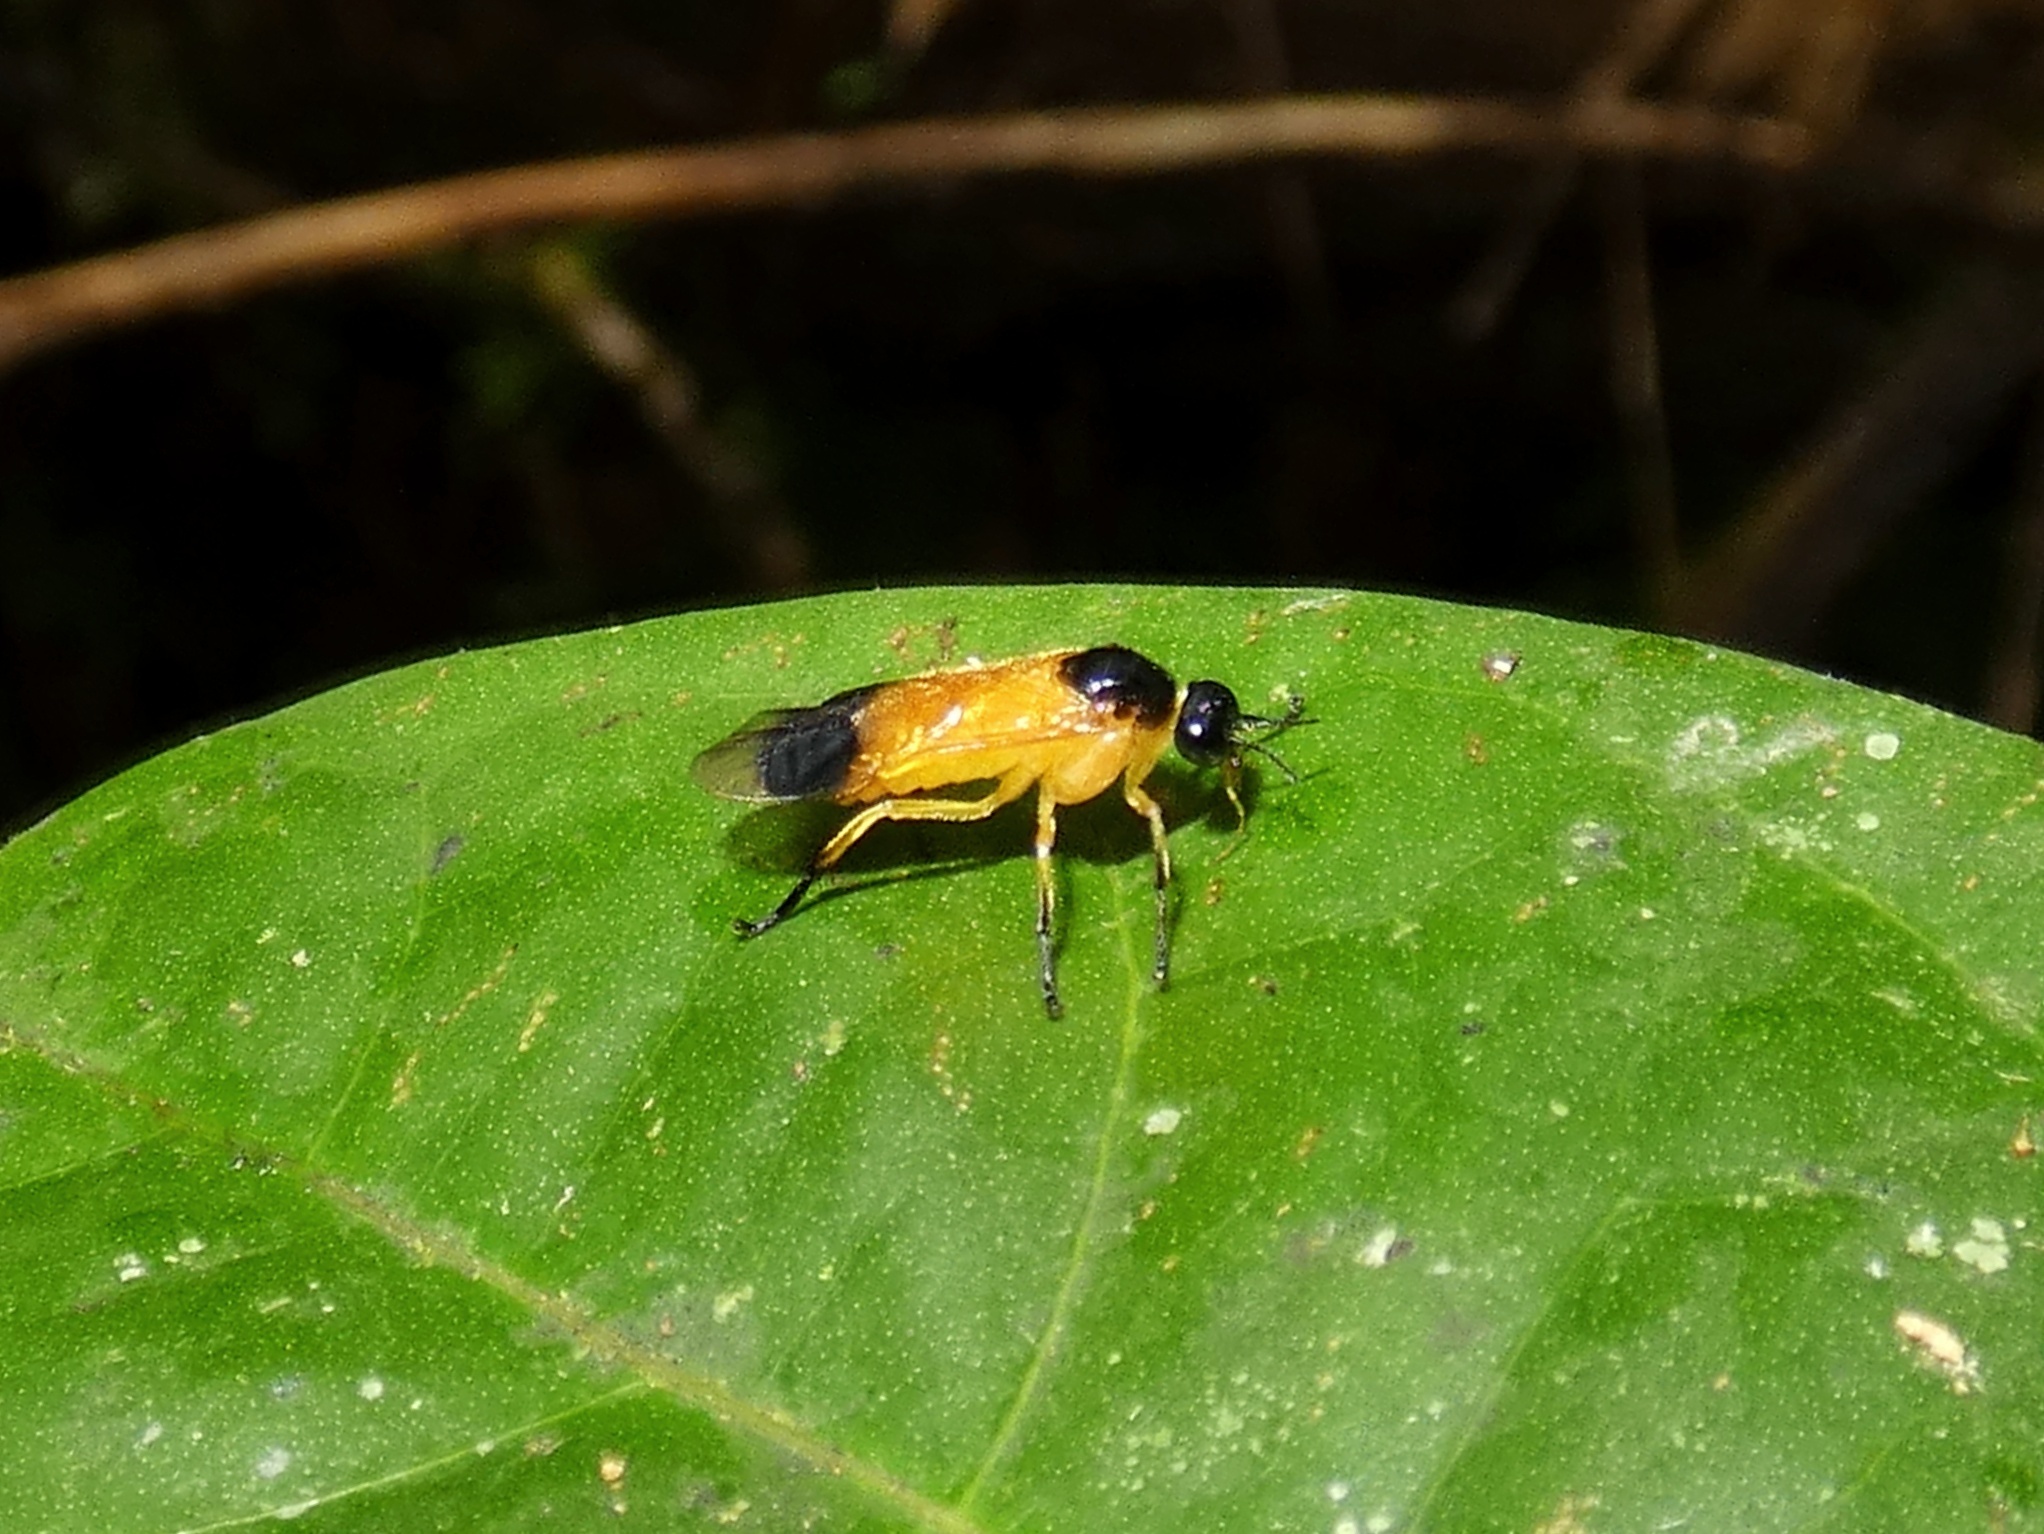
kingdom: Animalia
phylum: Arthropoda
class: Insecta
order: Hymenoptera
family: Pergidae
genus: Acordulecera
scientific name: Acordulecera
